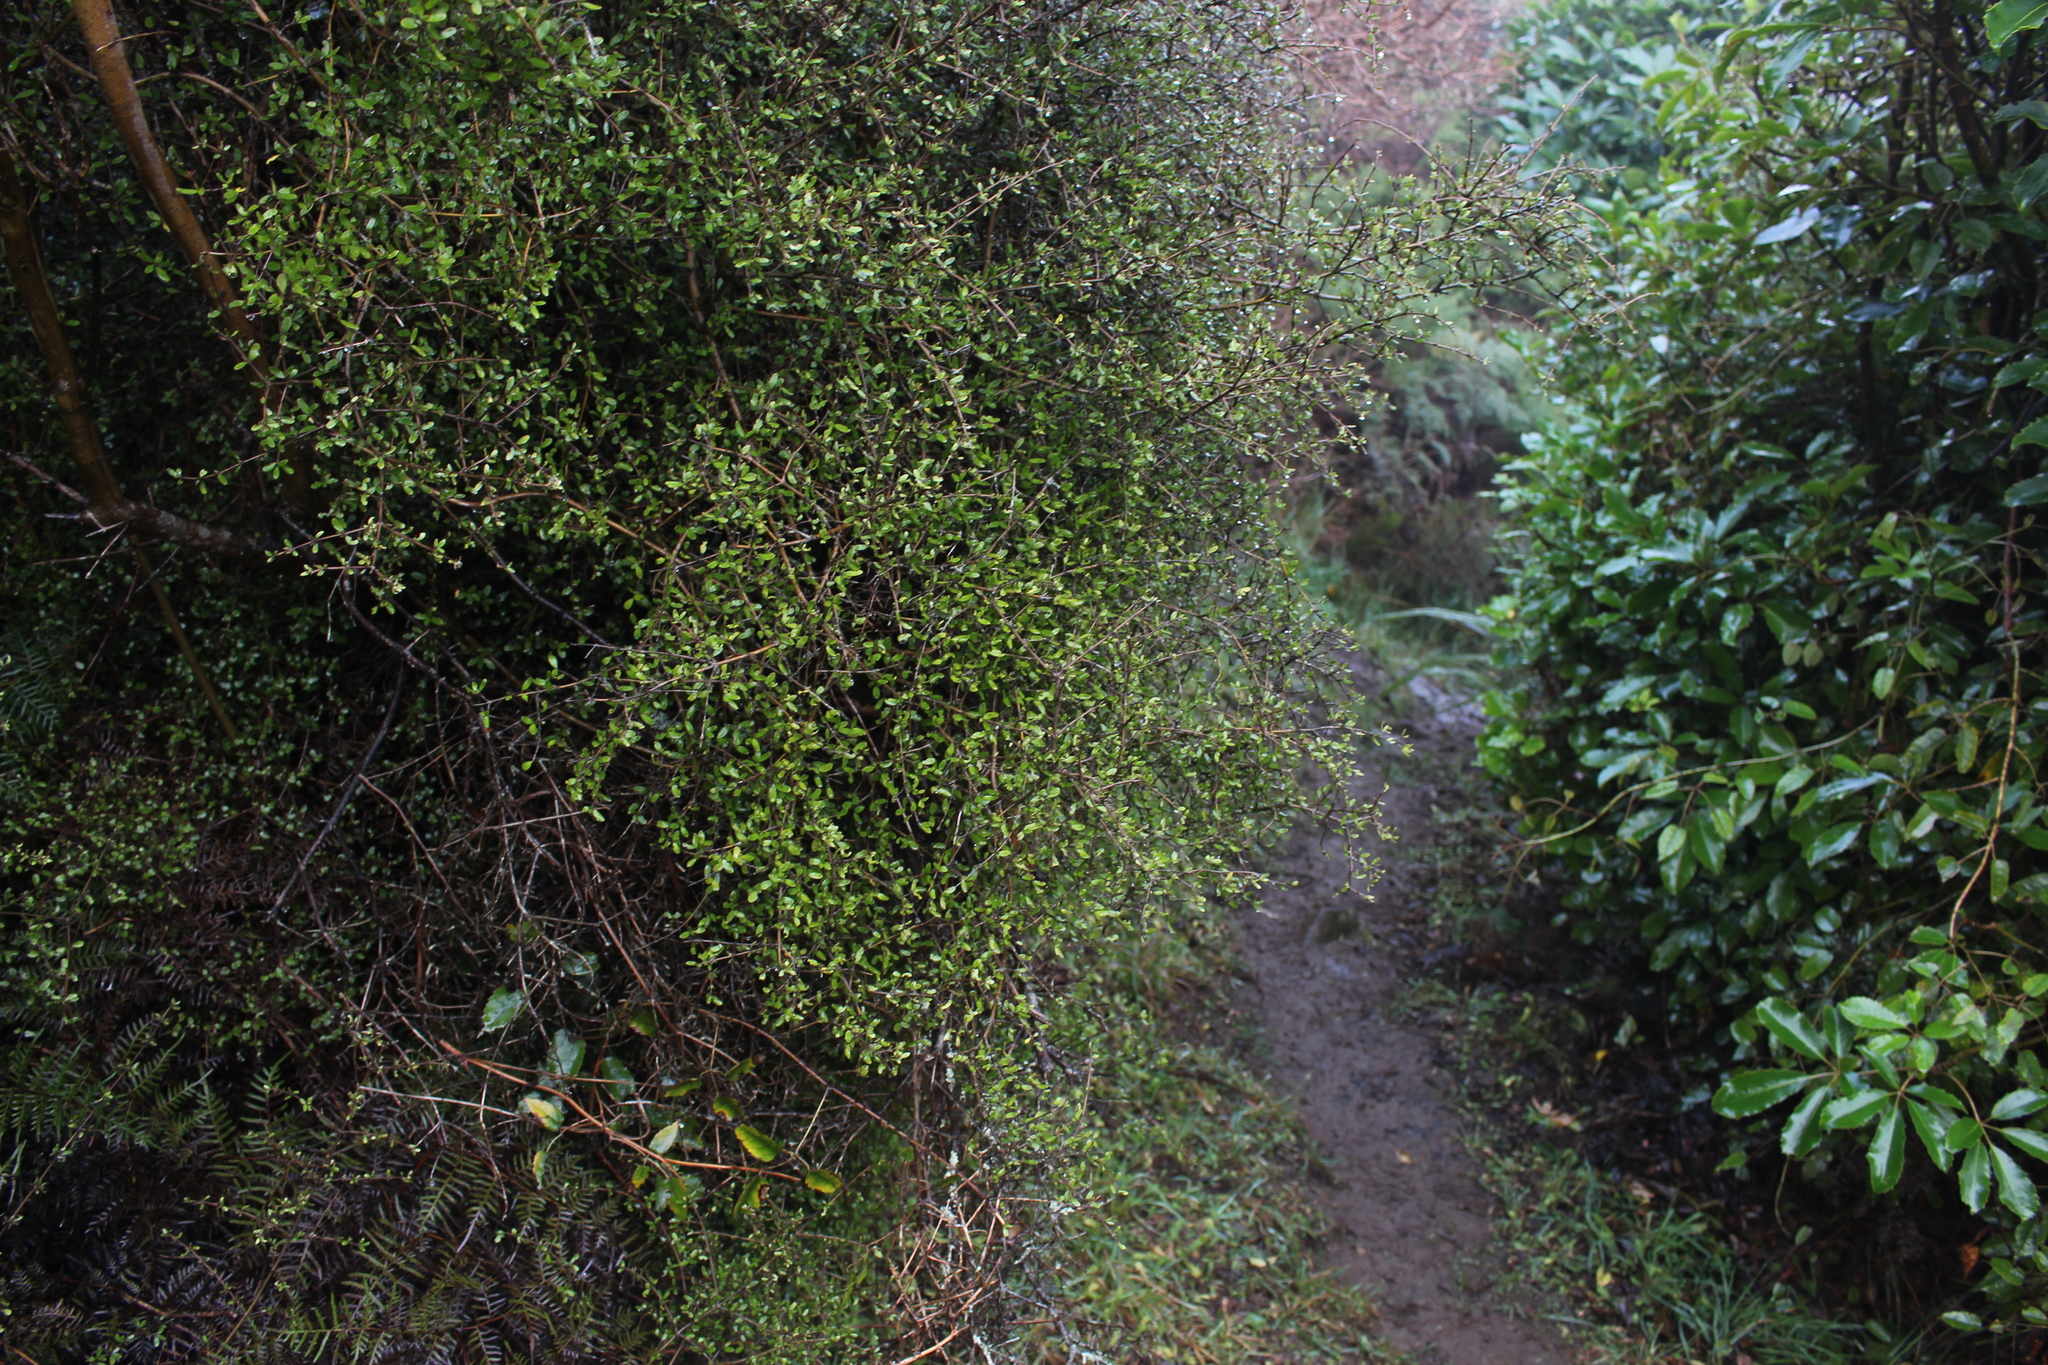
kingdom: Plantae
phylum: Tracheophyta
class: Magnoliopsida
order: Gentianales
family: Rubiaceae
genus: Coprosma
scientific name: Coprosma dumosa
